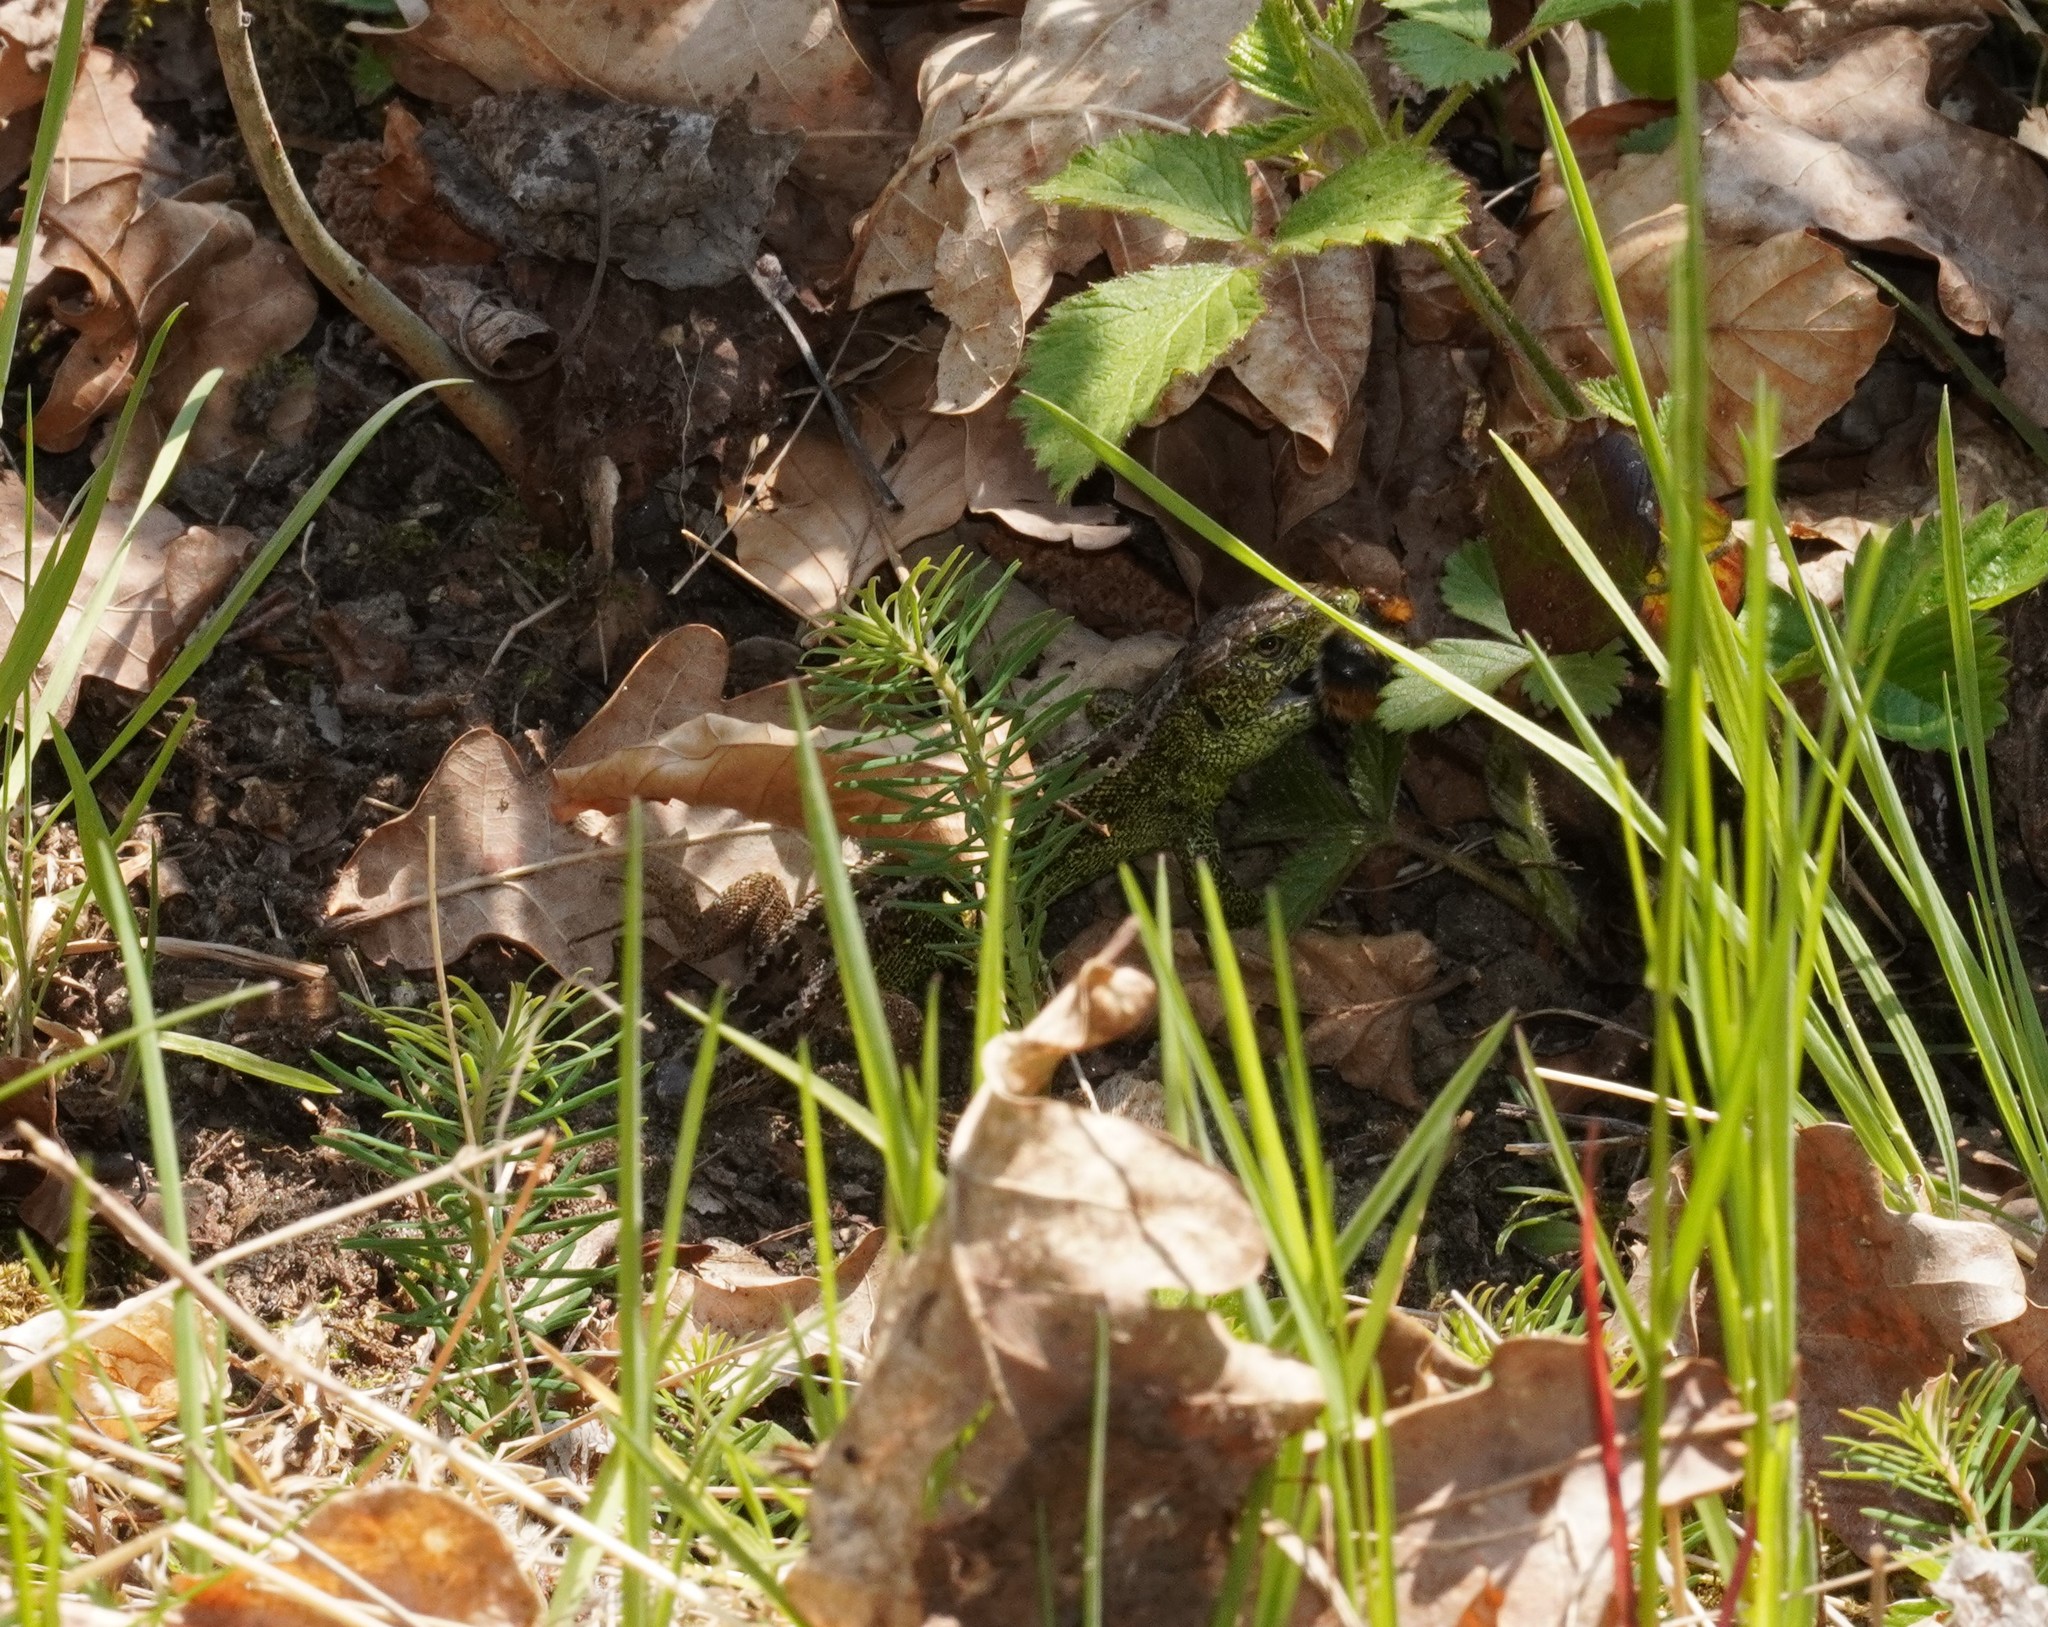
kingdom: Animalia
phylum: Chordata
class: Squamata
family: Lacertidae
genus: Lacerta
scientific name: Lacerta agilis
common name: Sand lizard
